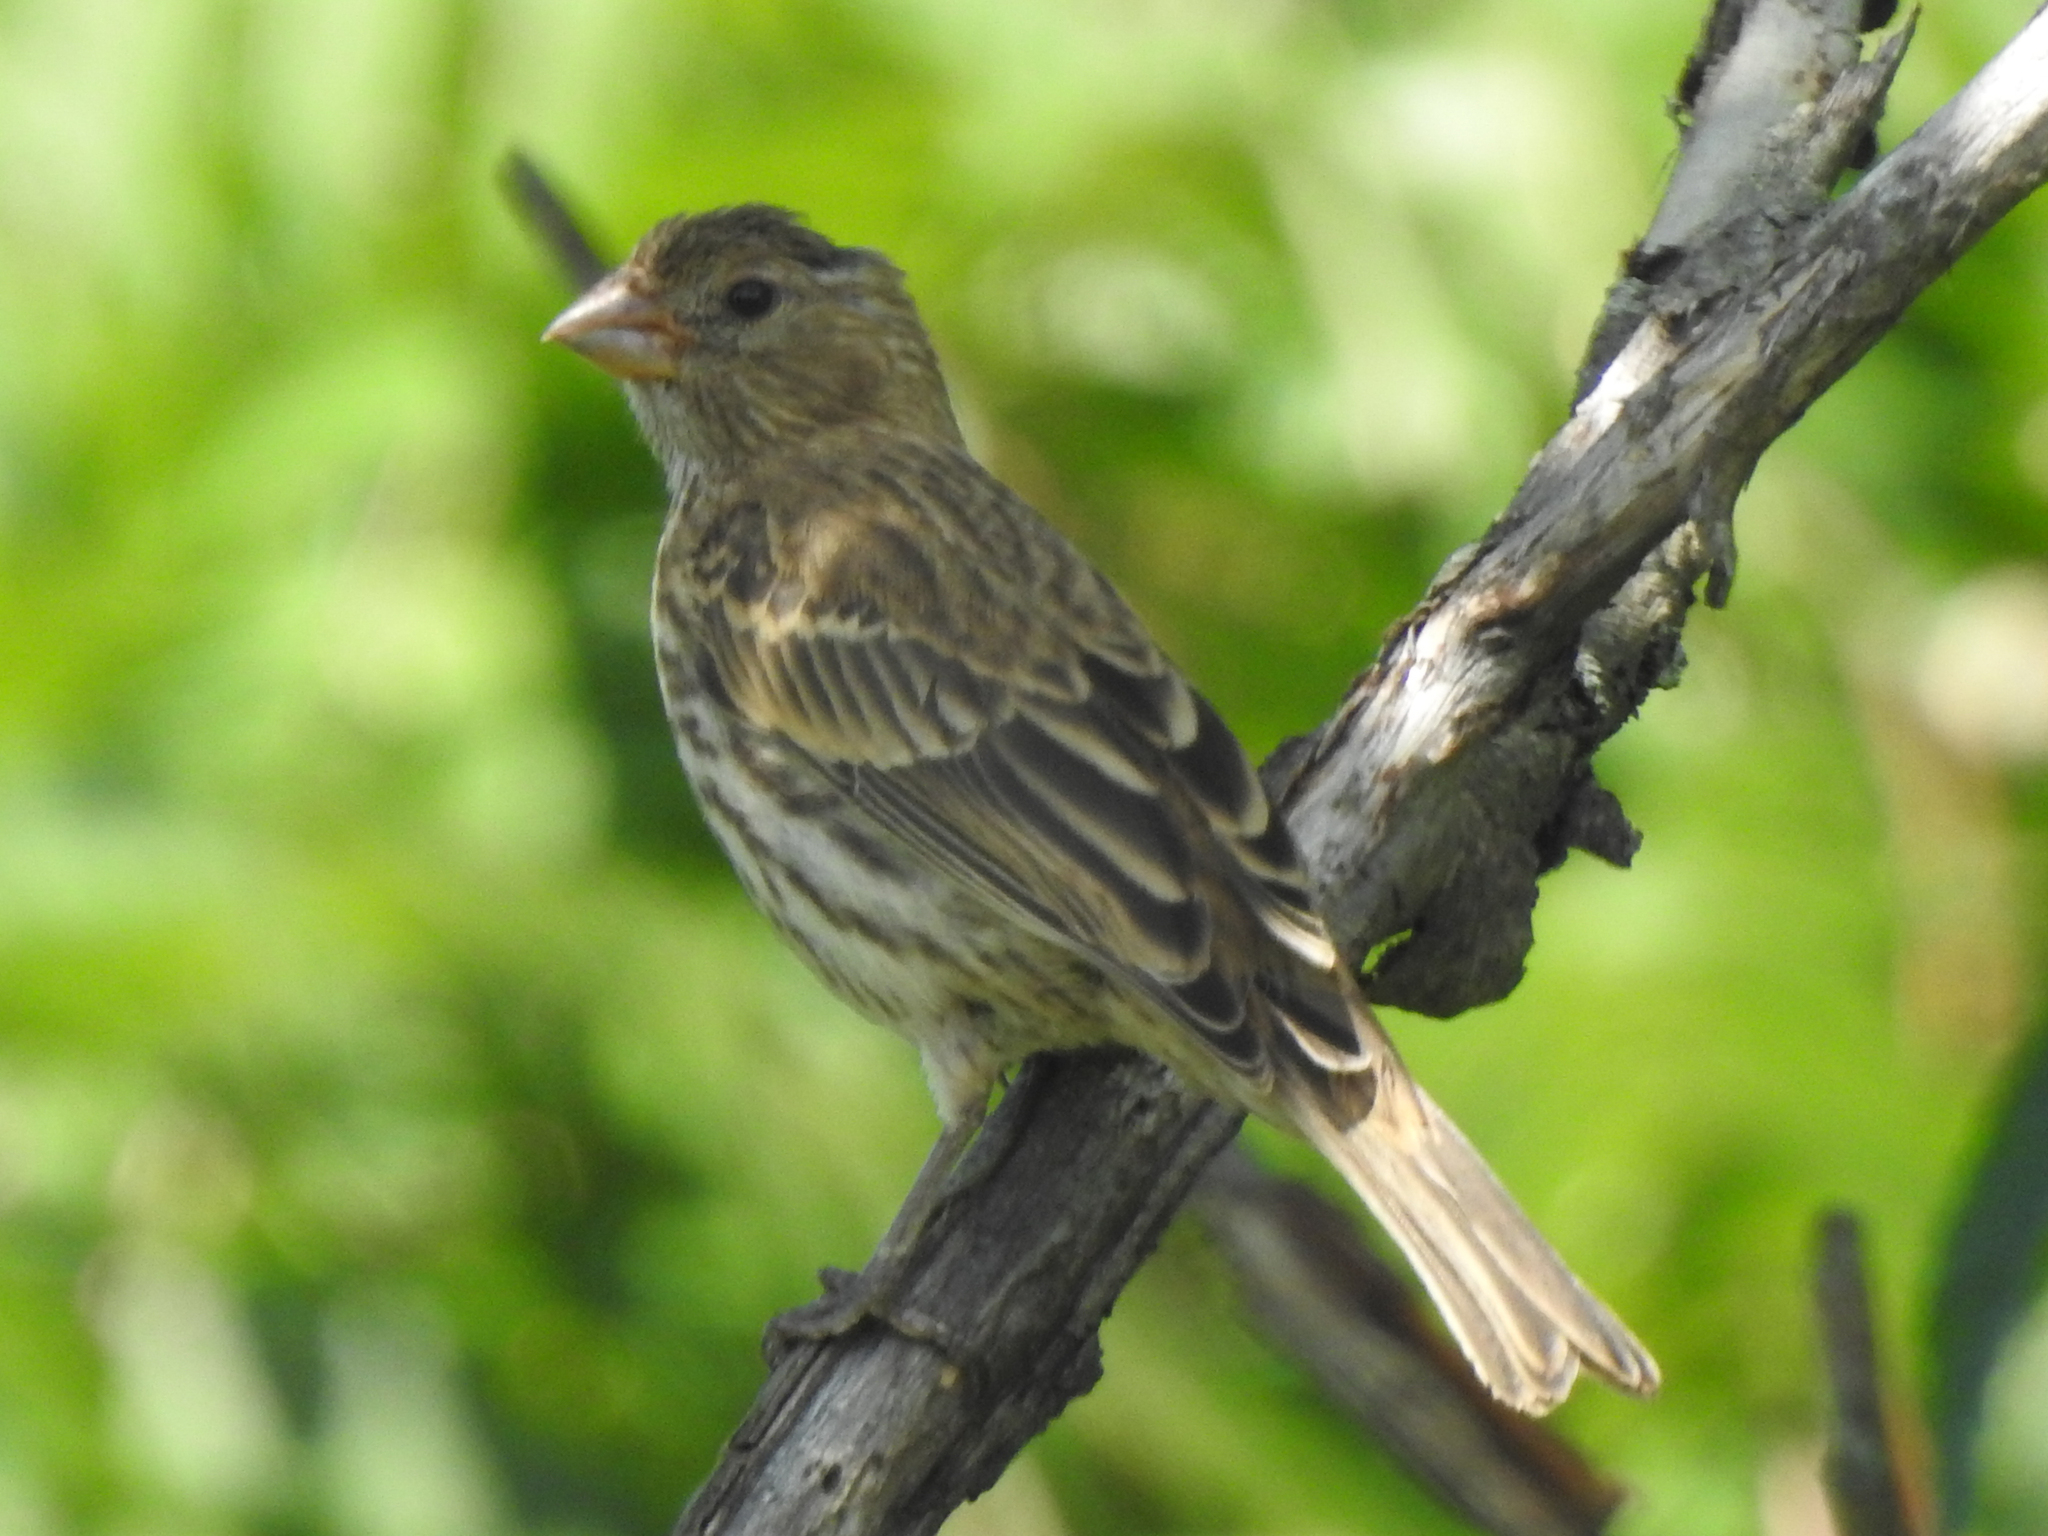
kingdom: Animalia
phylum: Chordata
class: Aves
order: Passeriformes
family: Fringillidae
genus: Haemorhous
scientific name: Haemorhous mexicanus
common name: House finch
